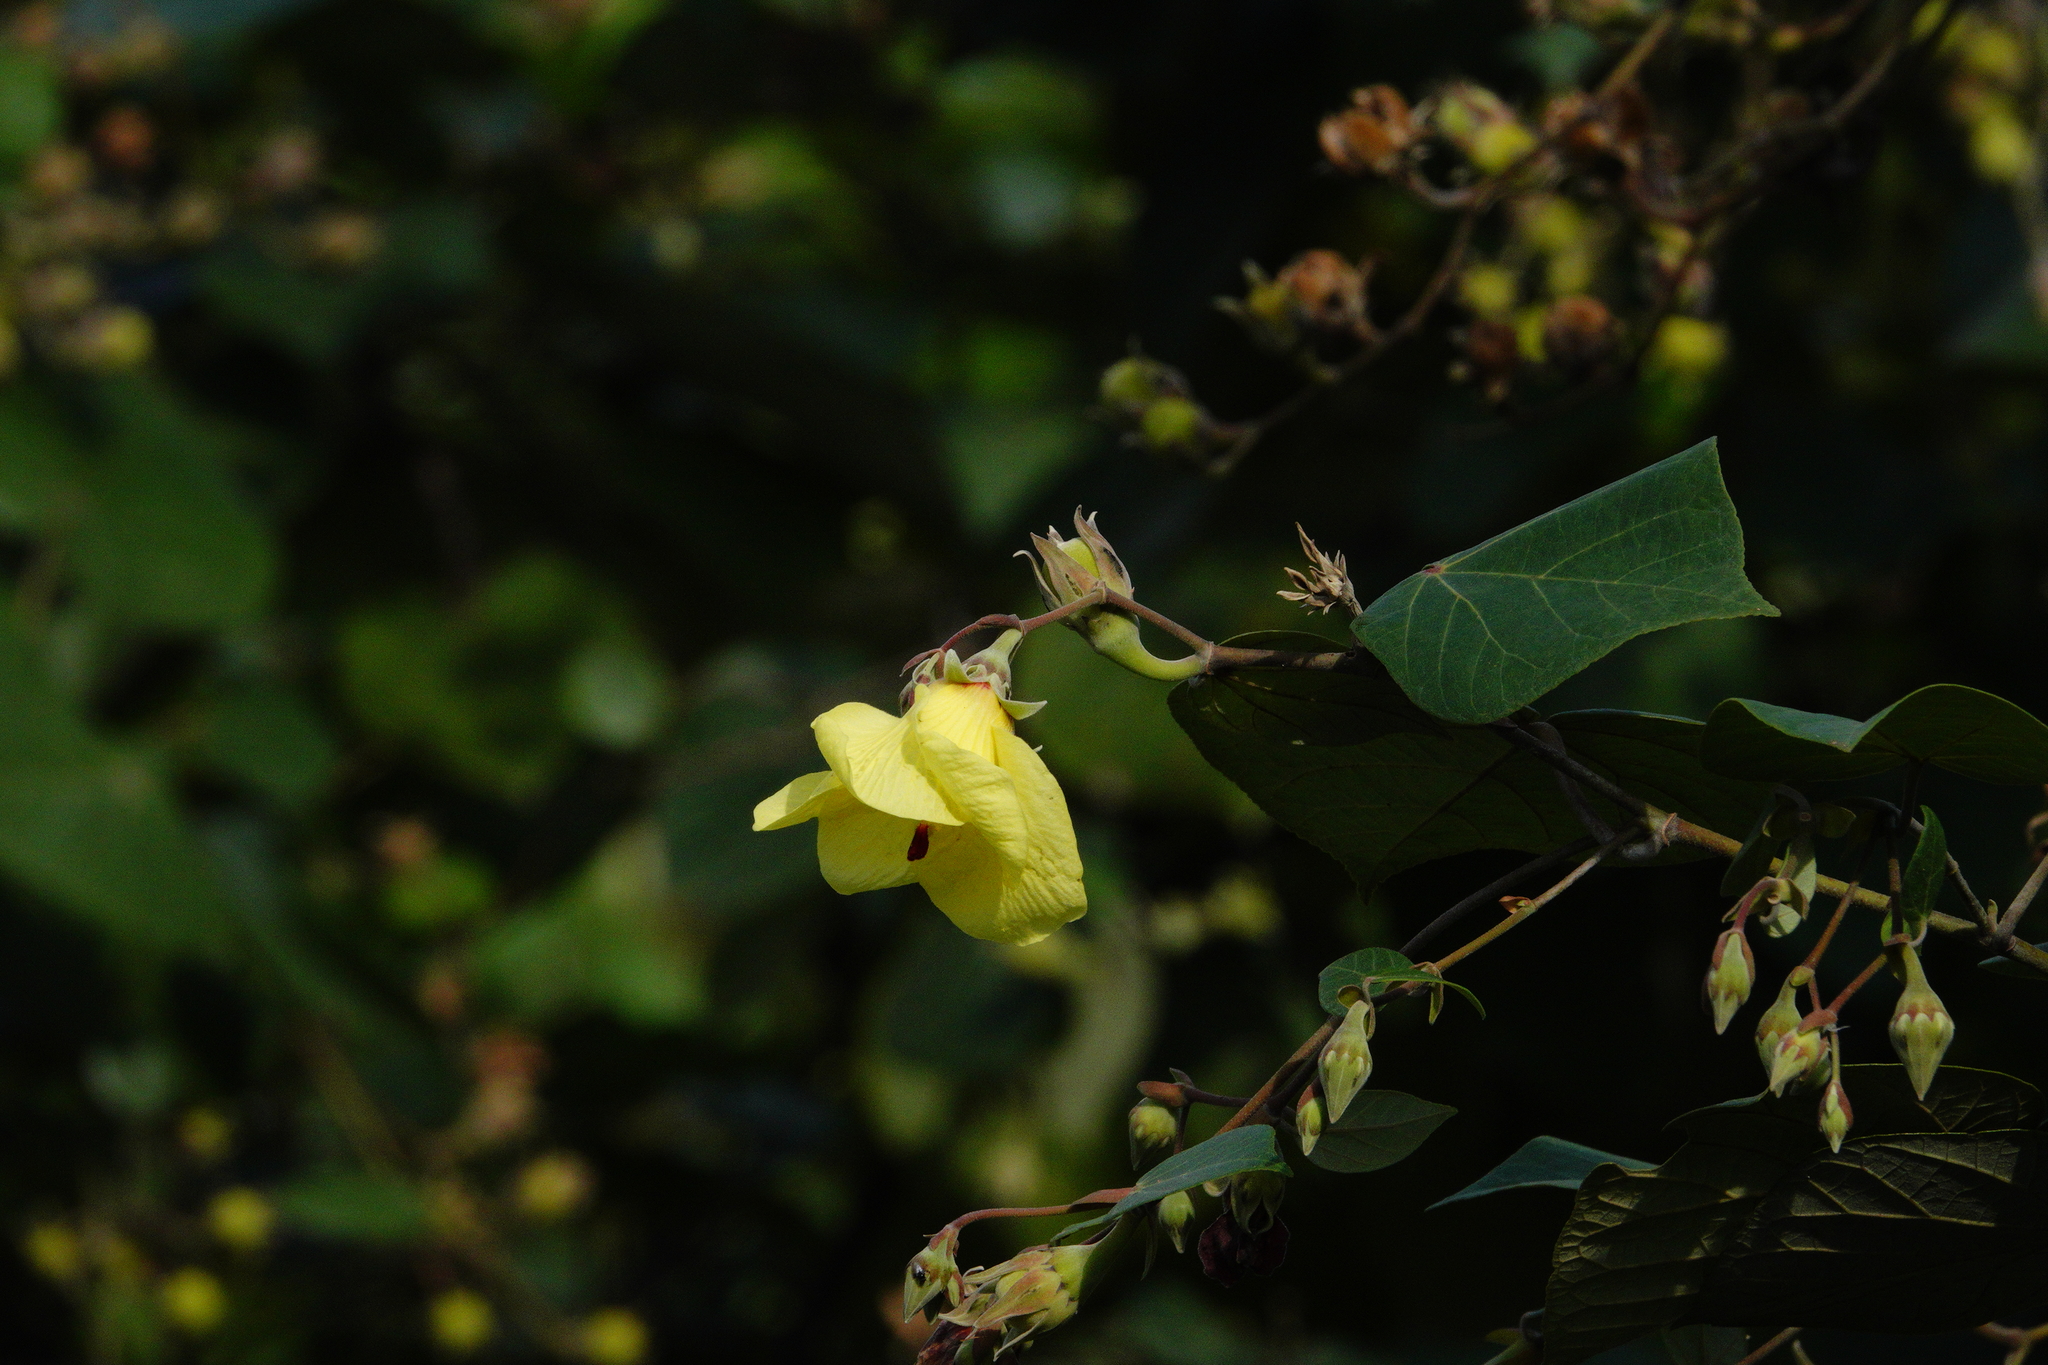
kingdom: Plantae
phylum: Tracheophyta
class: Magnoliopsida
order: Malvales
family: Malvaceae
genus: Talipariti
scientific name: Talipariti tiliaceum
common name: Sea hibiscus
